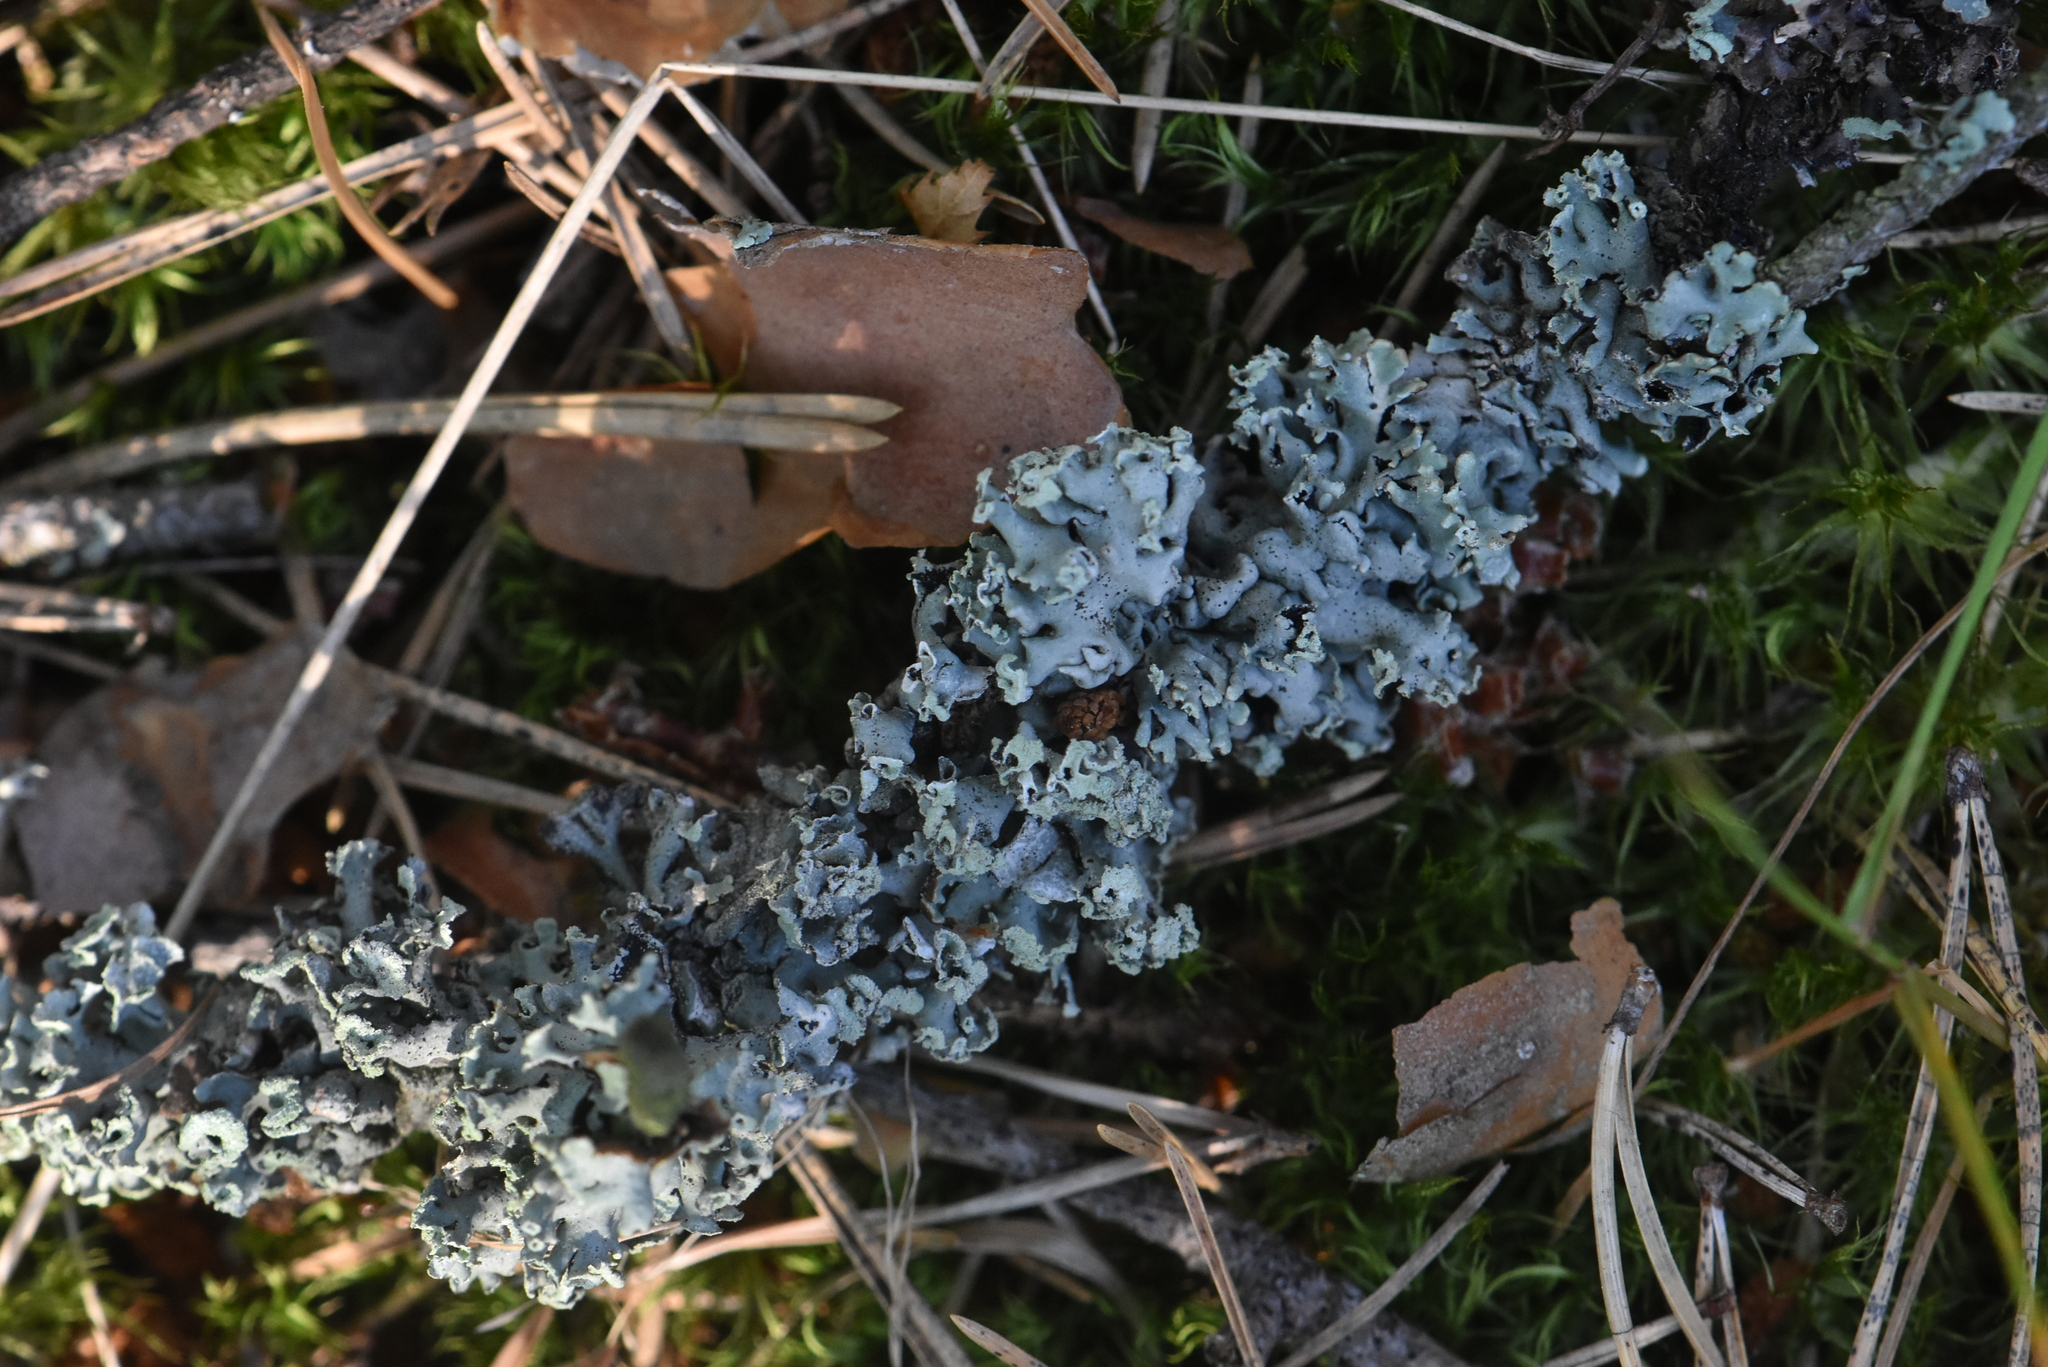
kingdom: Fungi
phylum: Ascomycota
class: Lecanoromycetes
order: Lecanorales
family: Parmeliaceae
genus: Hypogymnia
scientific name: Hypogymnia physodes
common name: Dark crottle
